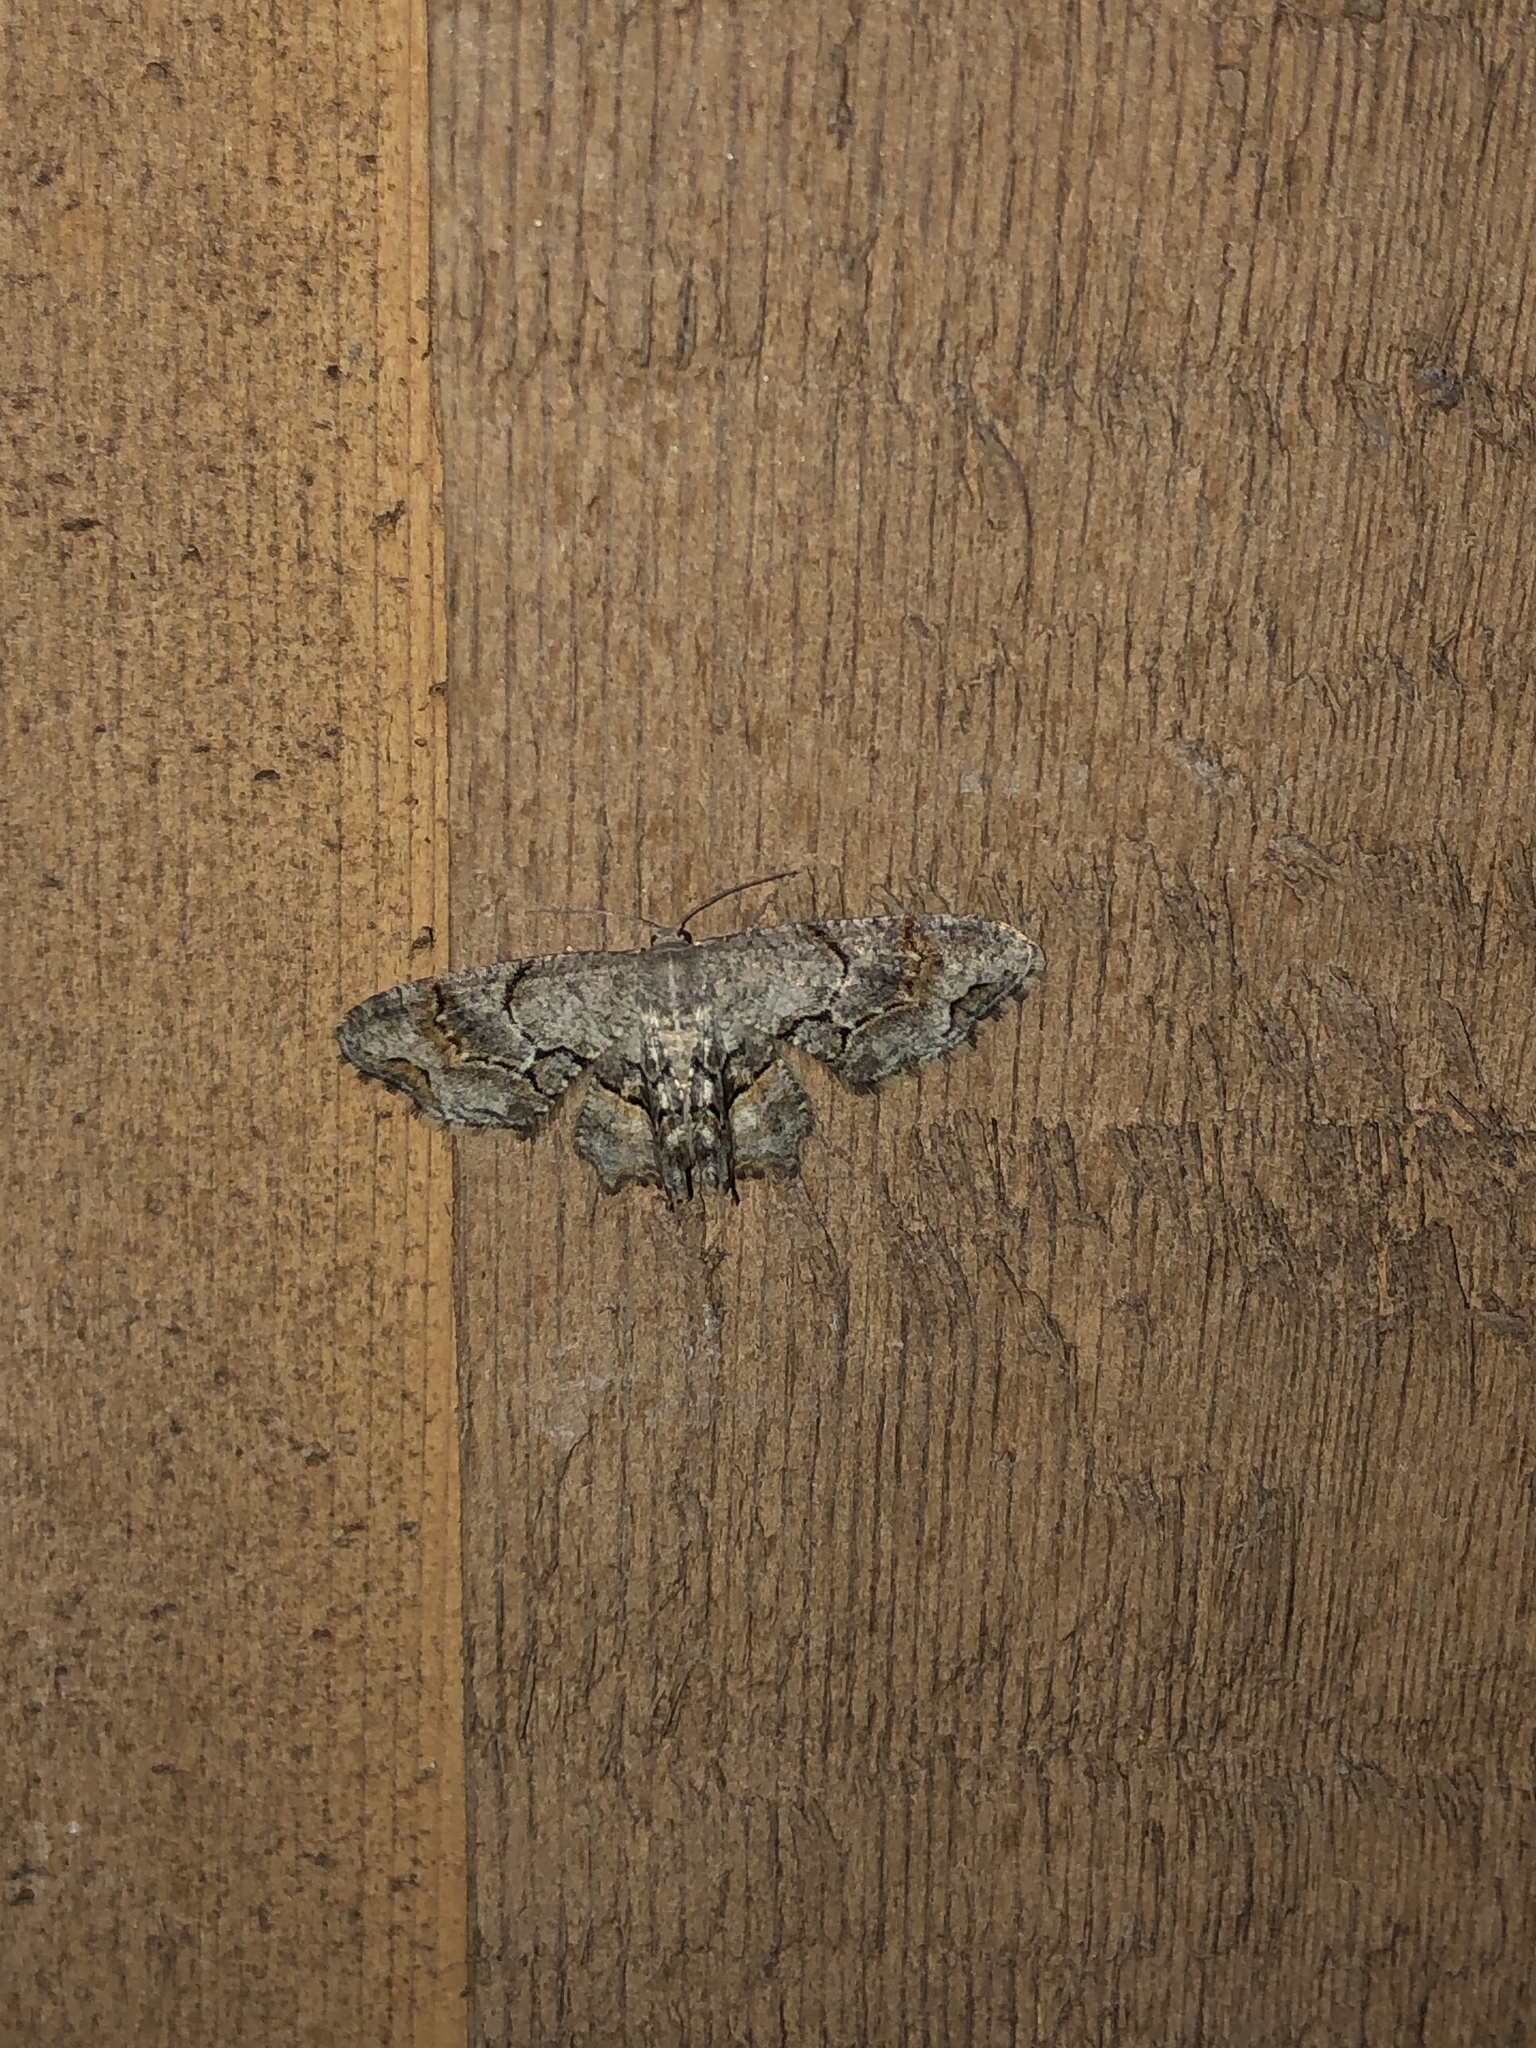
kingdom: Animalia
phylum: Arthropoda
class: Insecta
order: Lepidoptera
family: Uraniidae
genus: Epiplema
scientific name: Epiplema Callizzia amorata
